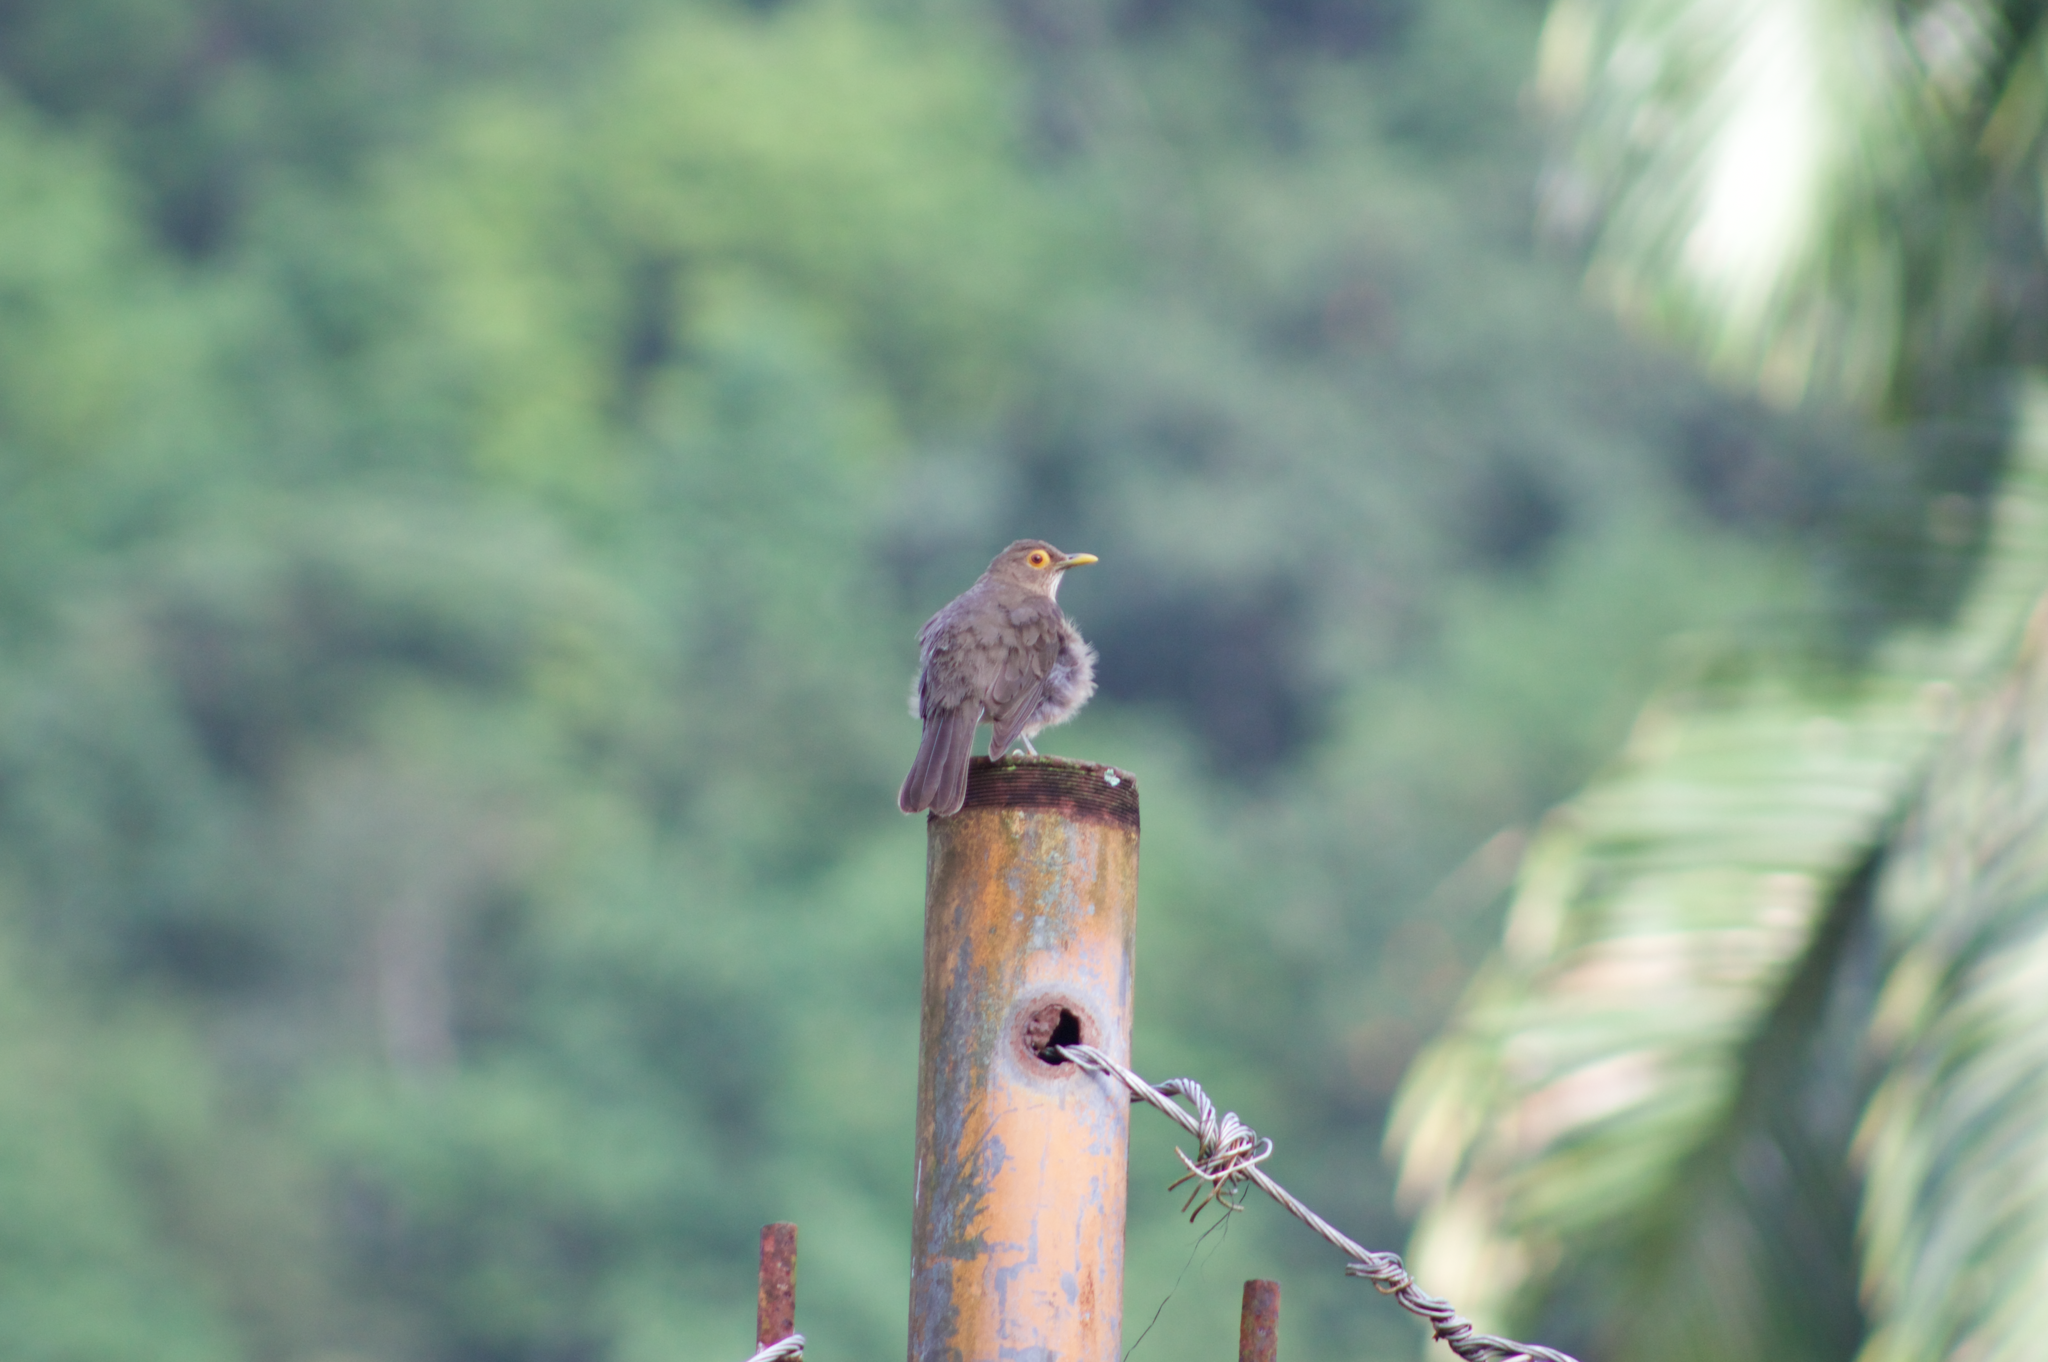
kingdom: Animalia
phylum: Chordata
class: Aves
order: Passeriformes
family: Turdidae
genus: Turdus
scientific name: Turdus nudigenis
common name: Spectacled thrush
